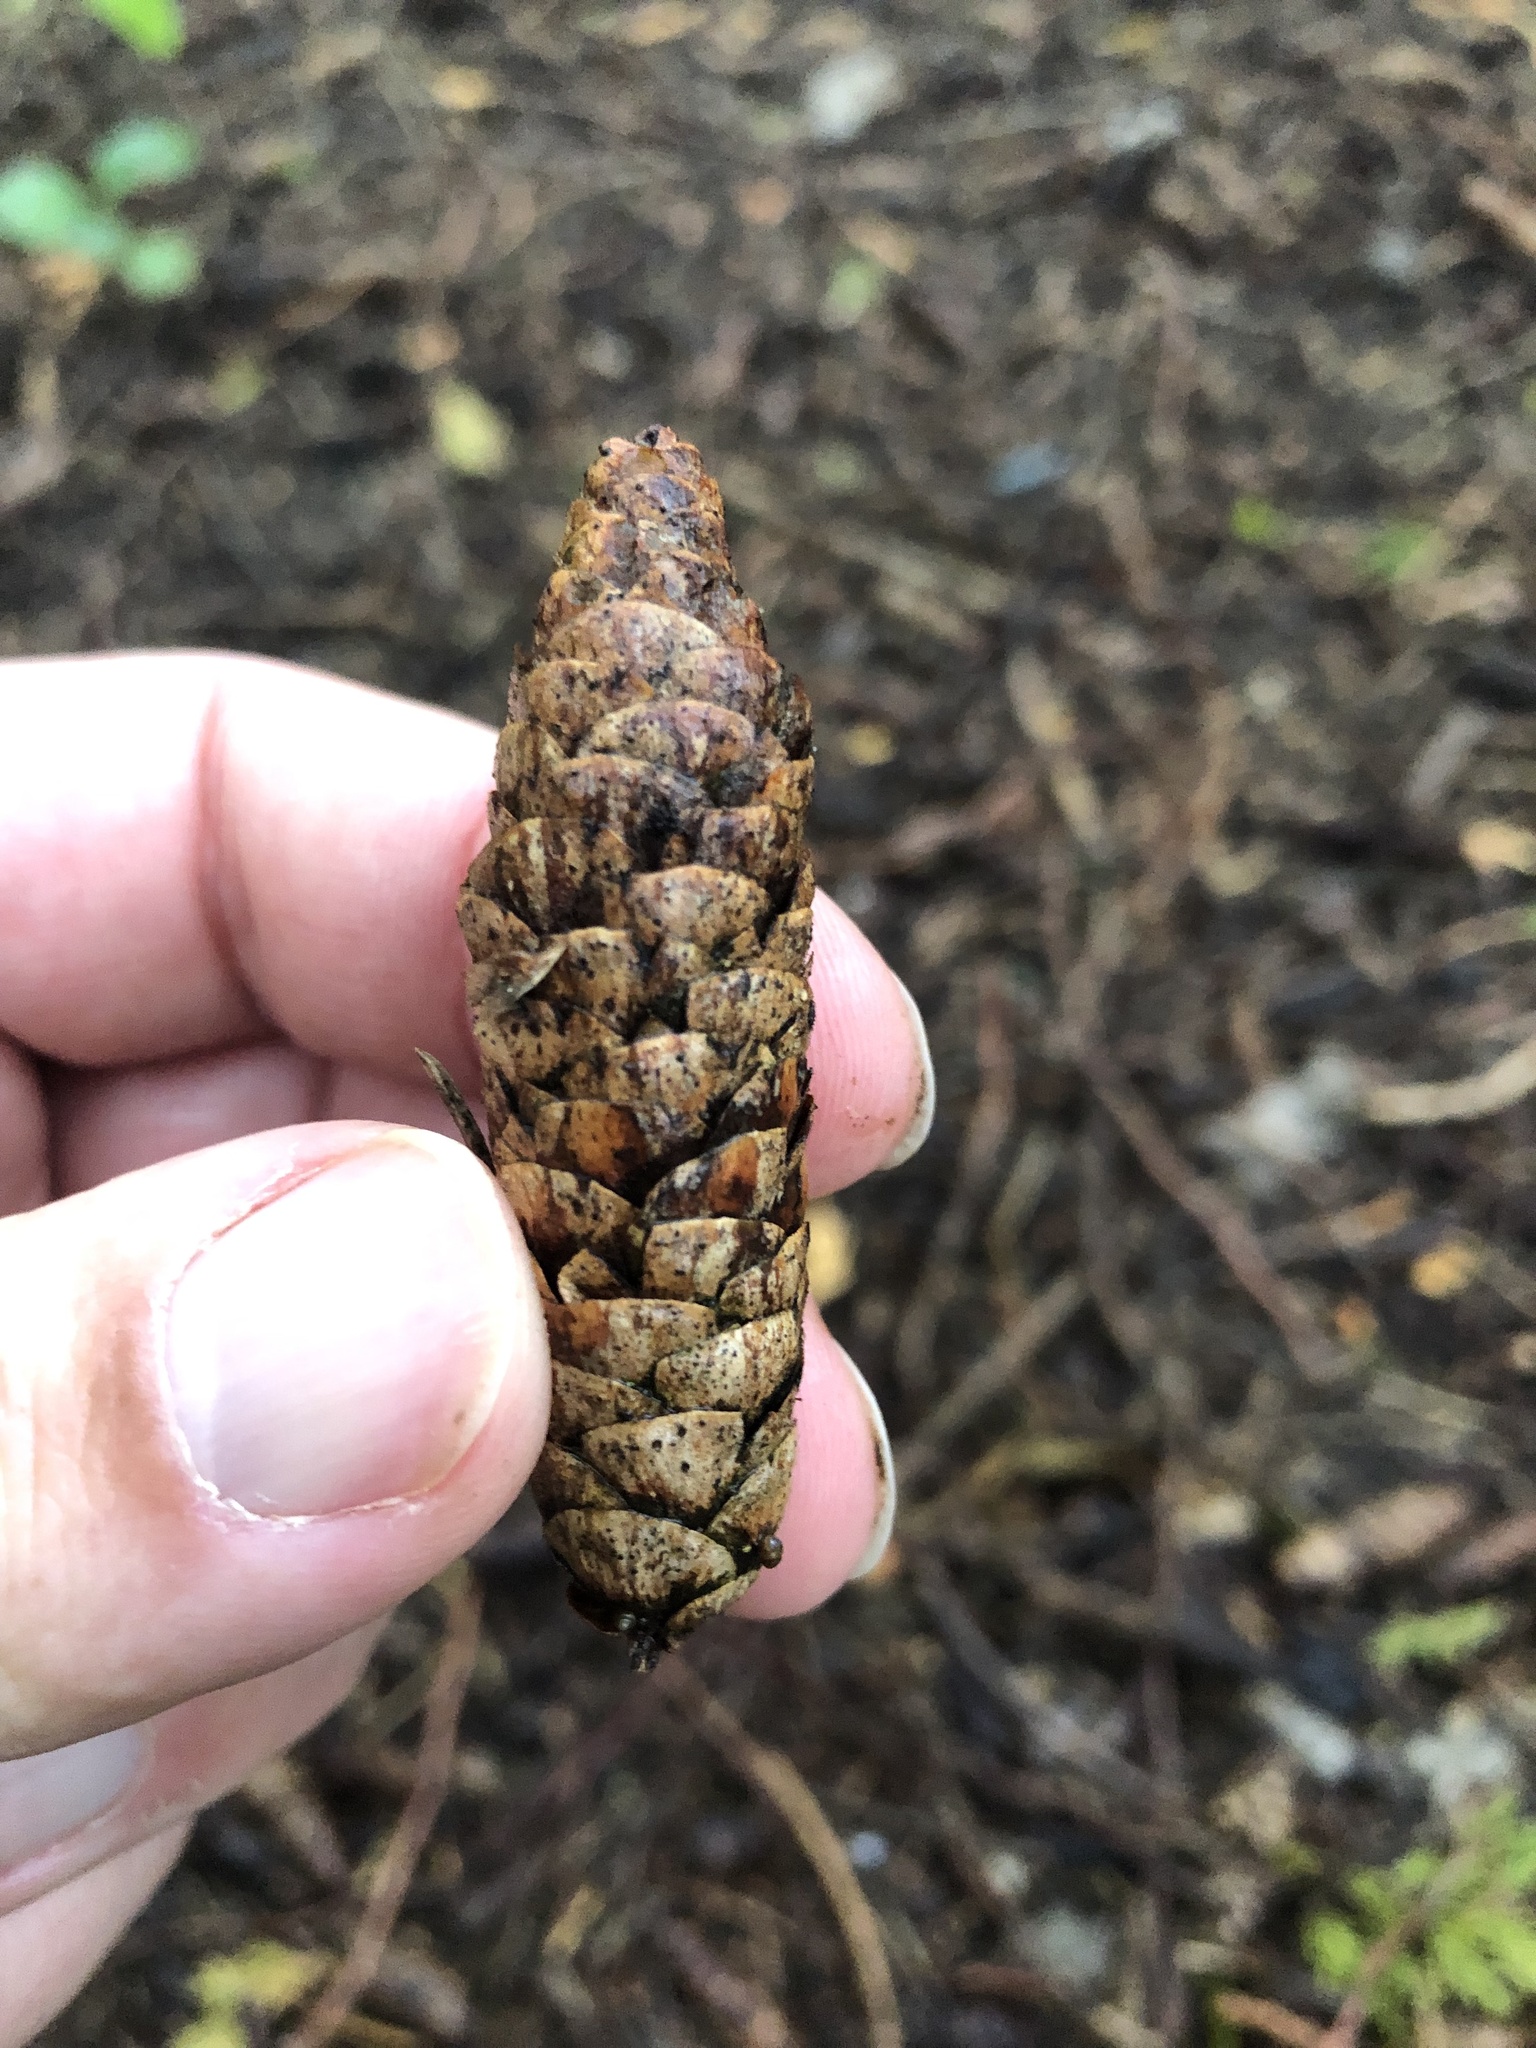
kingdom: Plantae
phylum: Tracheophyta
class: Pinopsida
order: Pinales
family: Pinaceae
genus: Picea
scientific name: Picea glauca
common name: White spruce
